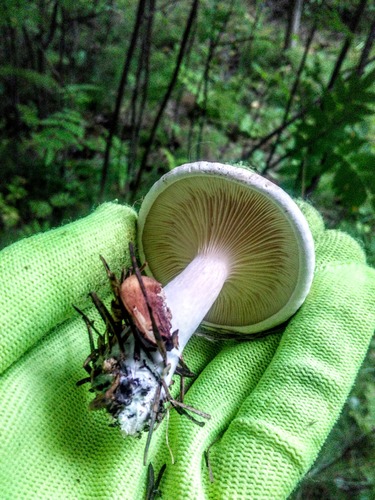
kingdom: Fungi
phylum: Basidiomycota
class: Agaricomycetes
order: Agaricales
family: Entolomataceae
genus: Clitopilus
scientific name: Clitopilus prunulus
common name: The miller
